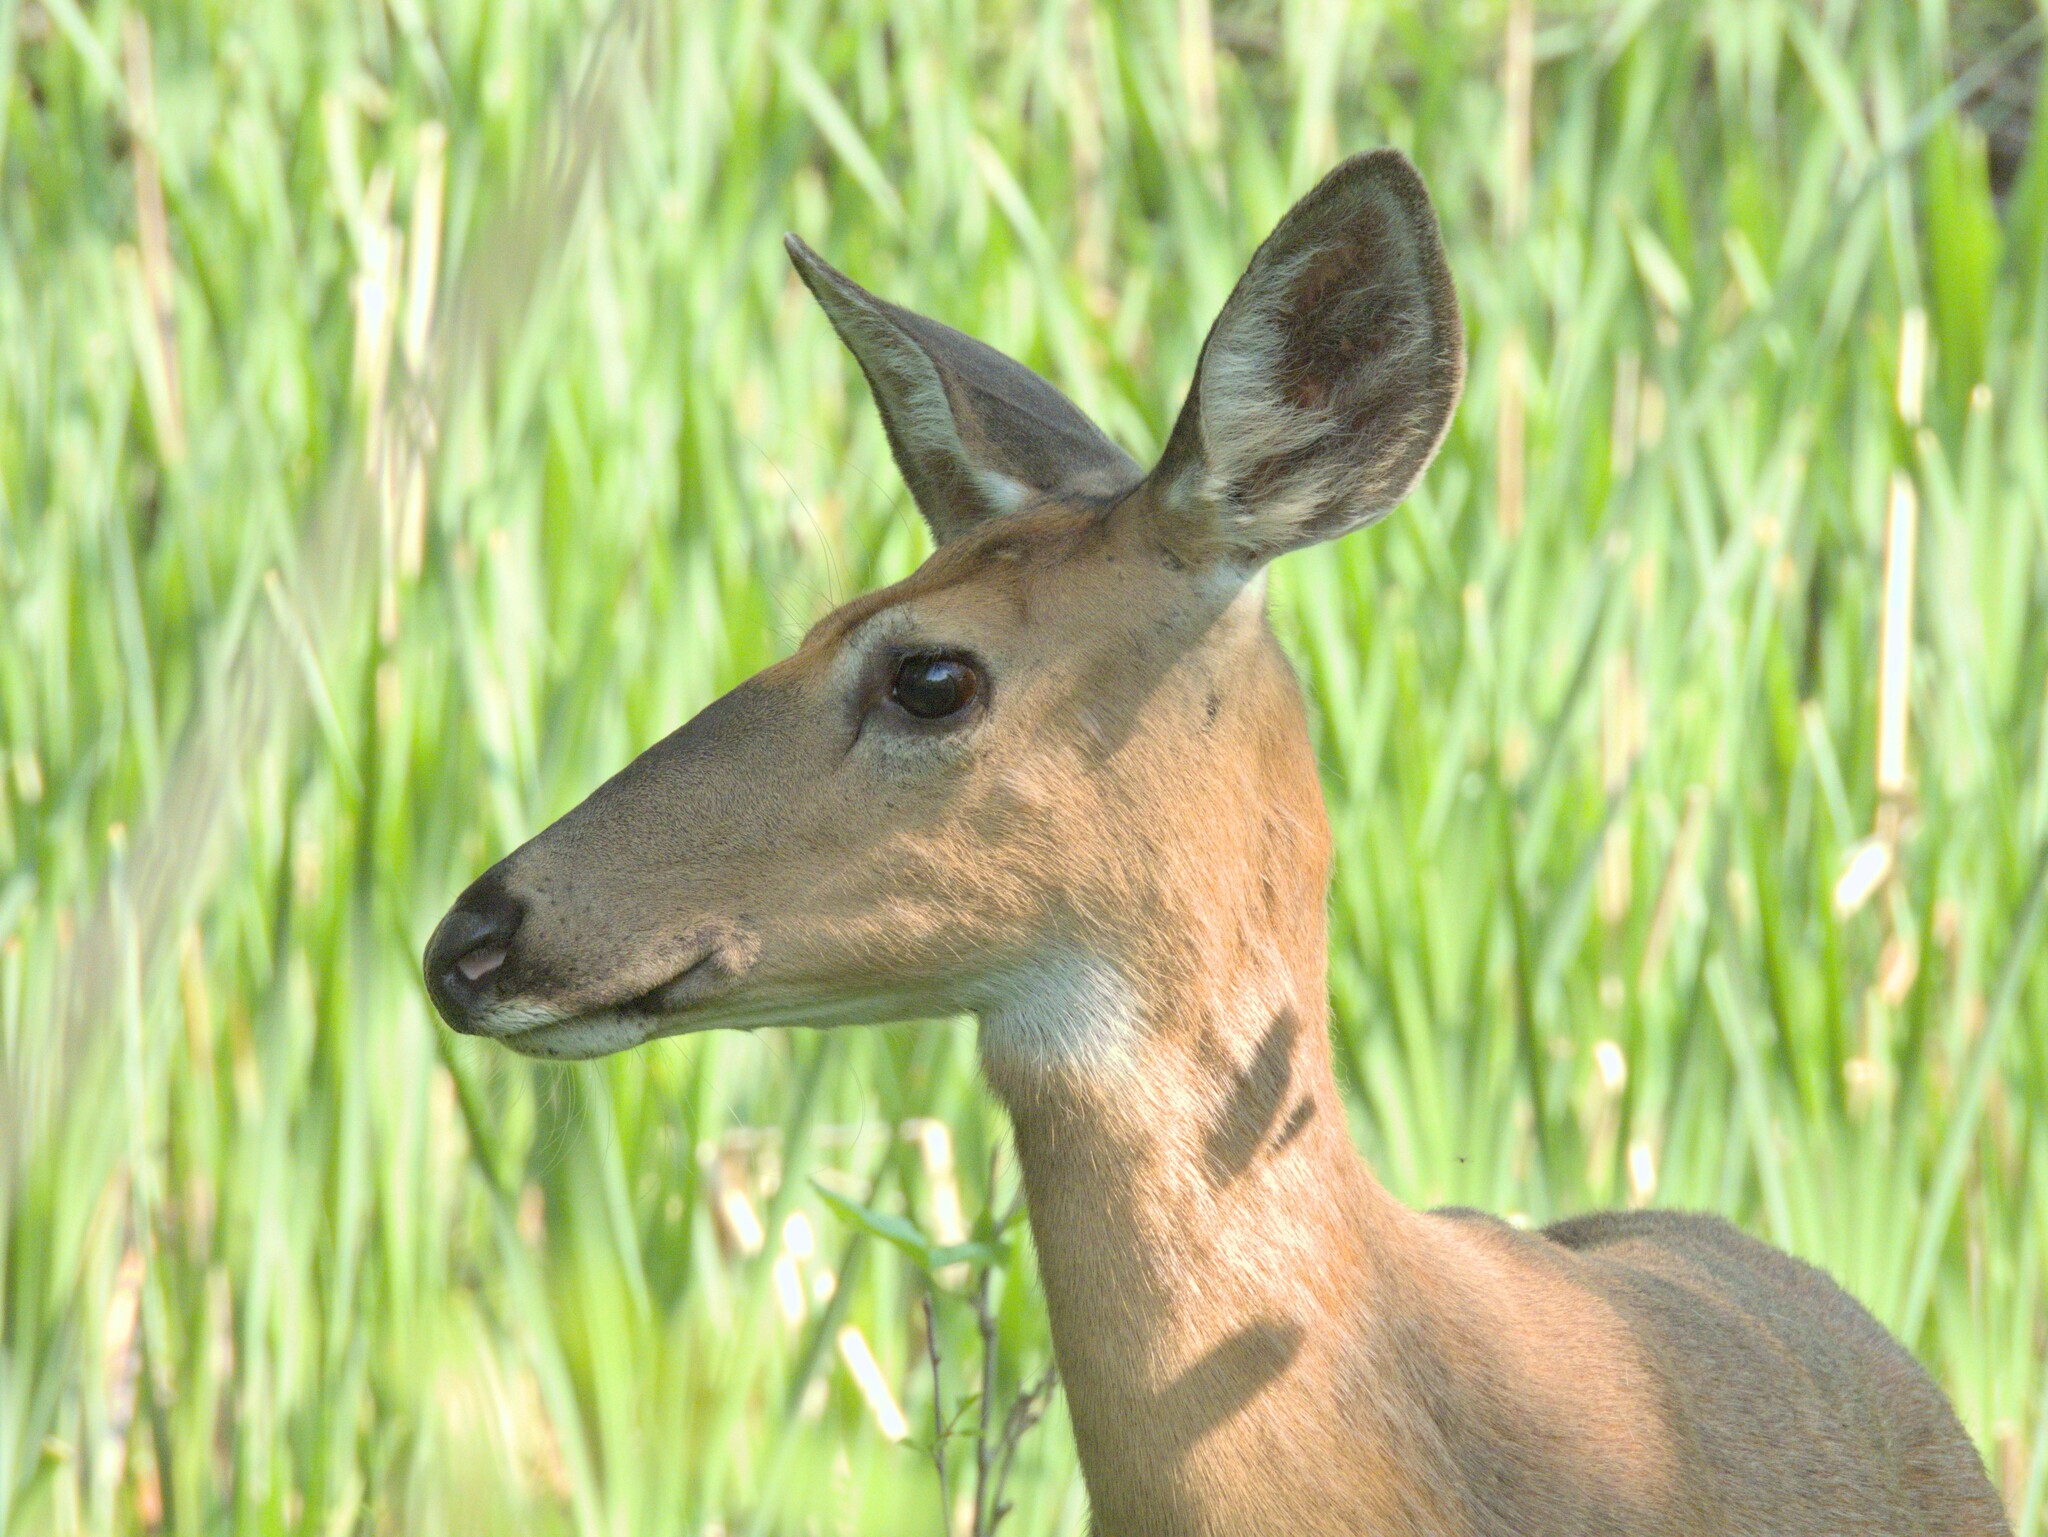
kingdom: Animalia
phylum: Chordata
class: Mammalia
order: Artiodactyla
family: Cervidae
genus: Odocoileus
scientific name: Odocoileus virginianus
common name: White-tailed deer
